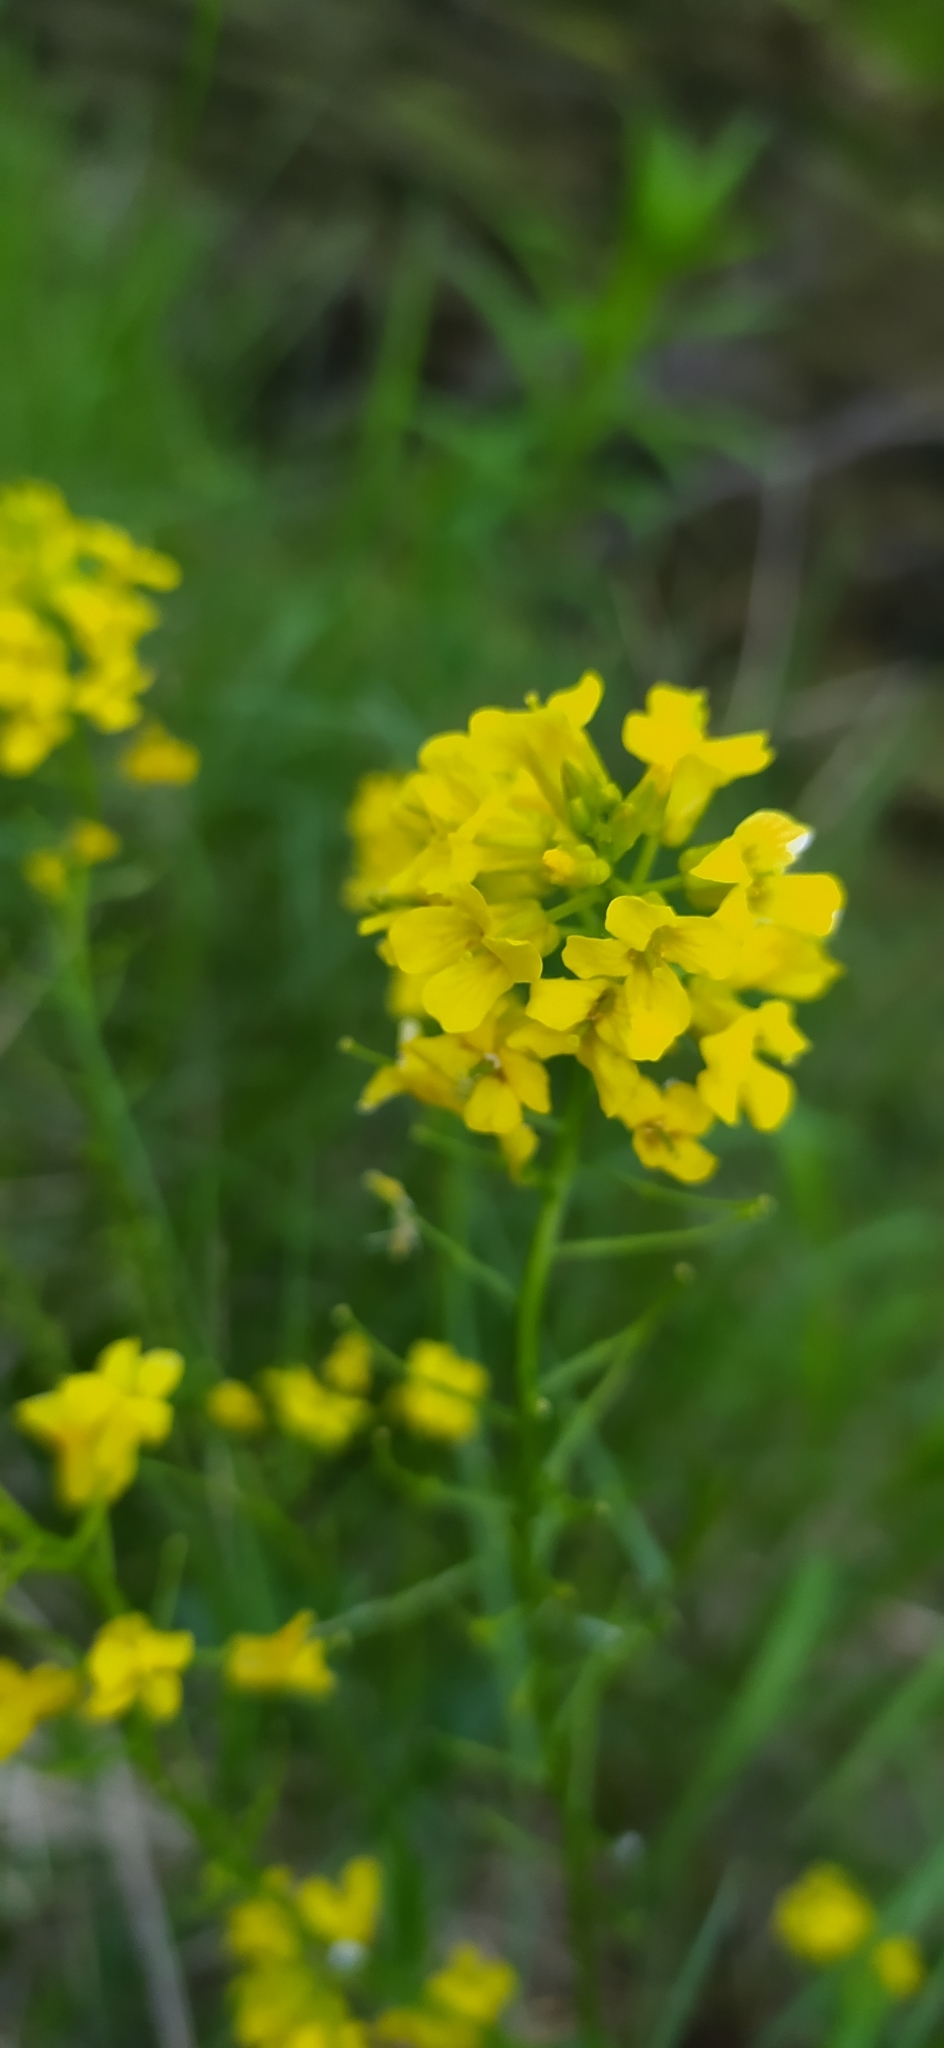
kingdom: Plantae
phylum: Tracheophyta
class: Magnoliopsida
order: Brassicales
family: Brassicaceae
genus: Barbarea
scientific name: Barbarea vulgaris
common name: Cressy-greens
